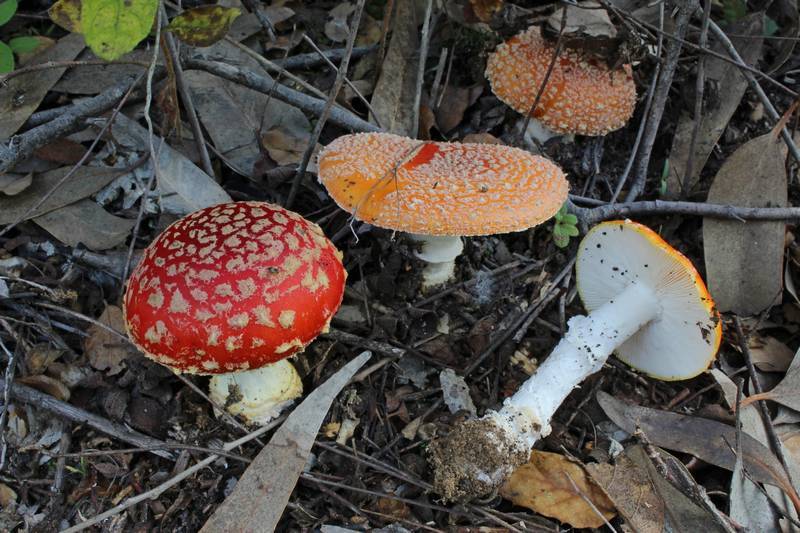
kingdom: Fungi
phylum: Basidiomycota
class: Agaricomycetes
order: Agaricales
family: Amanitaceae
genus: Amanita
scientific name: Amanita muscaria
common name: Fly agaric
